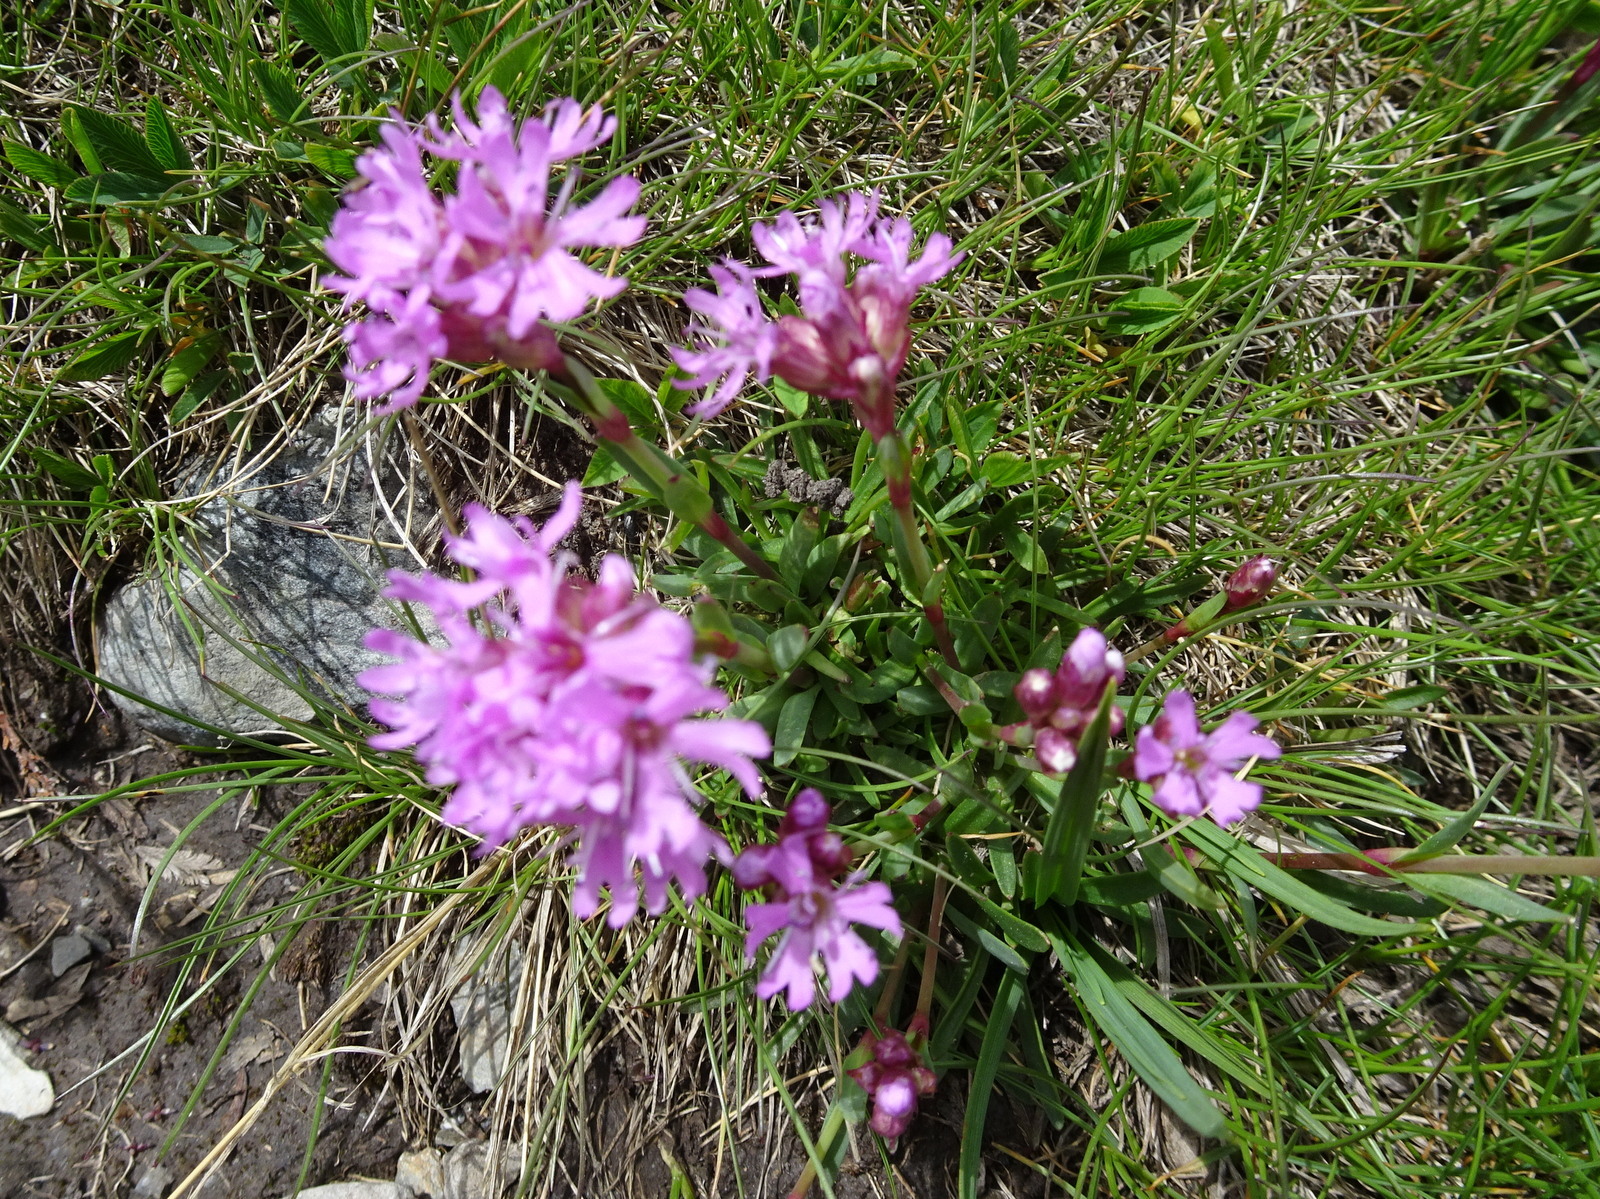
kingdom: Plantae
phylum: Tracheophyta
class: Magnoliopsida
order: Caryophyllales
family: Caryophyllaceae
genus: Viscaria
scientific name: Viscaria alpina
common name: Alpine campion
